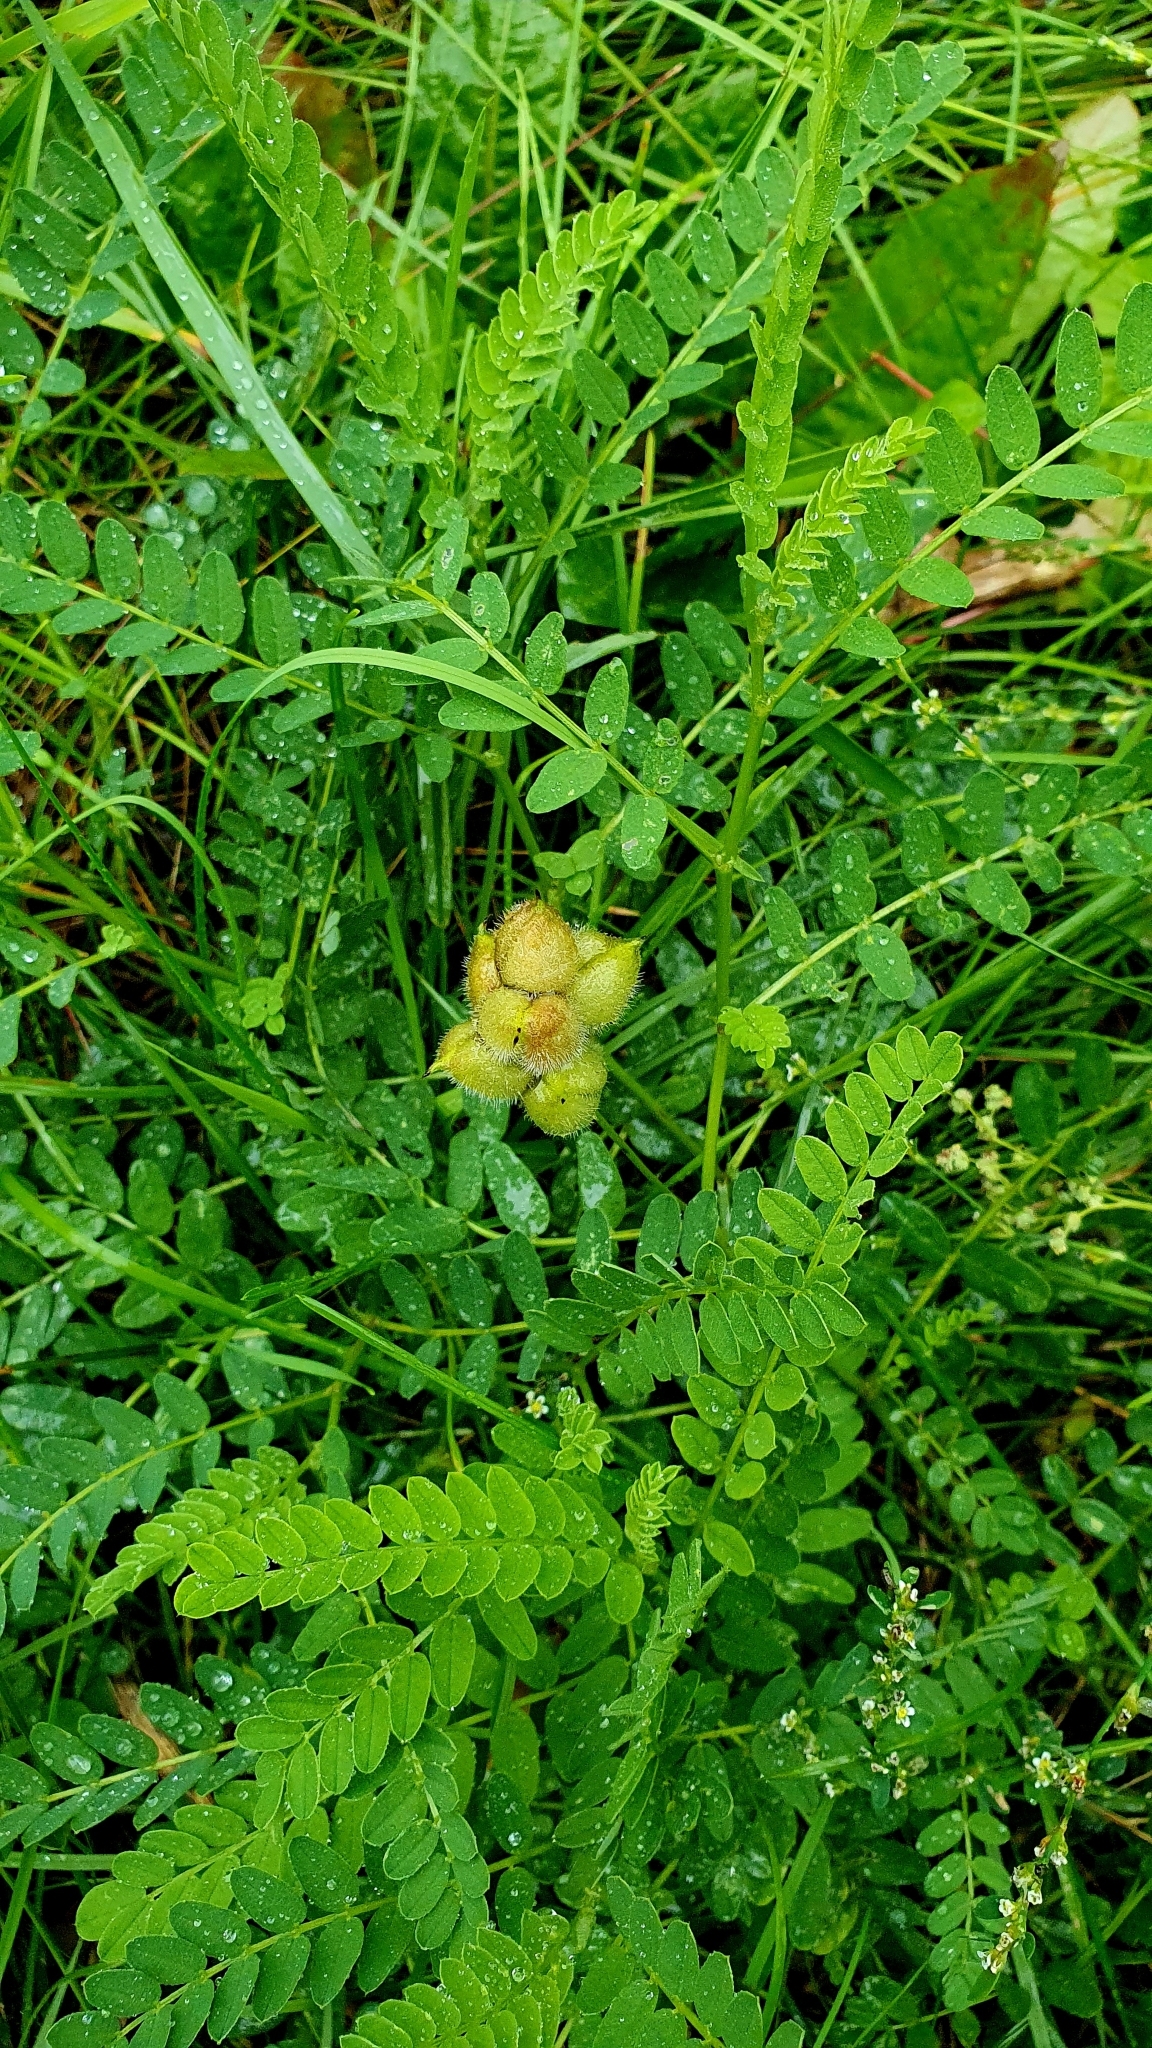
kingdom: Plantae
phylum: Tracheophyta
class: Magnoliopsida
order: Fabales
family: Fabaceae
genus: Astragalus
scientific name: Astragalus cicer
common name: Chick-pea milk-vetch
